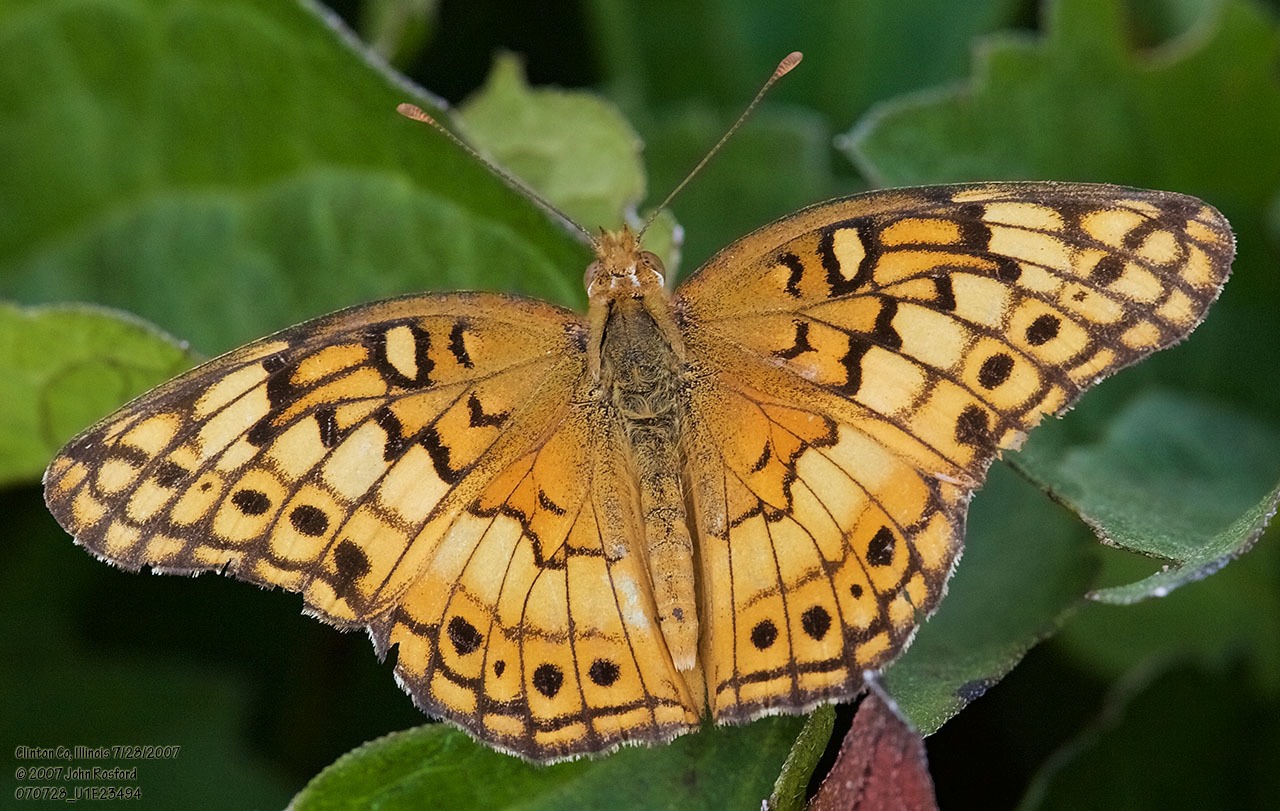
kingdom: Animalia
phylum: Arthropoda
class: Insecta
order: Lepidoptera
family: Nymphalidae
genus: Euptoieta
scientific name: Euptoieta claudia
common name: Variegated fritillary
